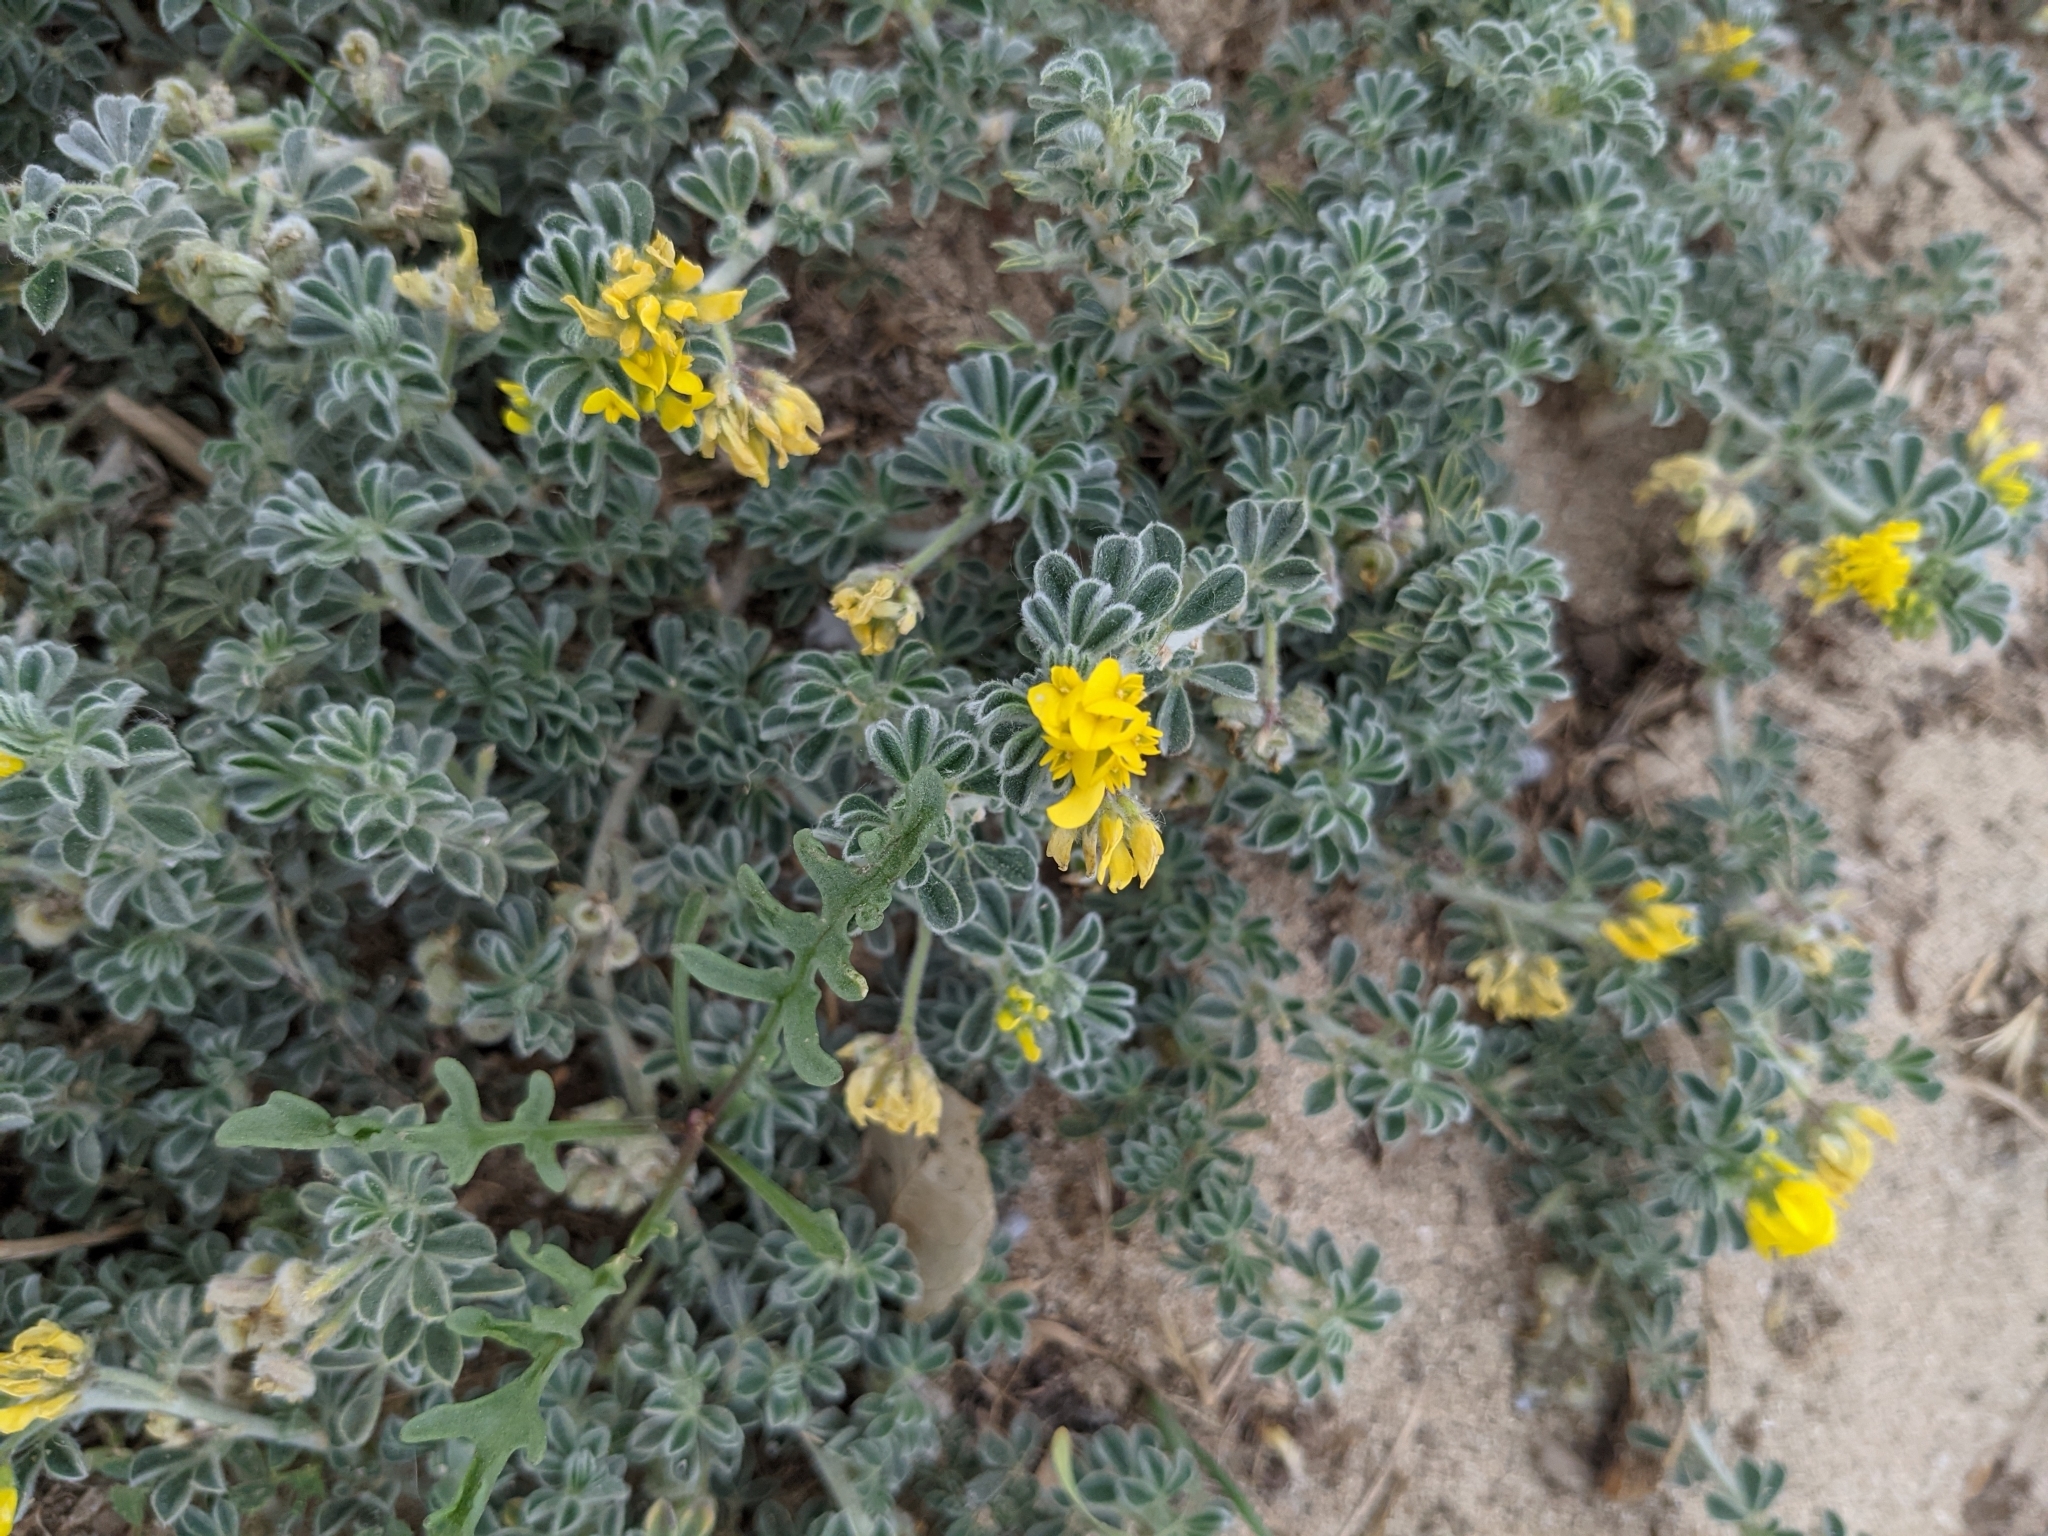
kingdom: Plantae
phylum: Tracheophyta
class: Magnoliopsida
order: Fabales
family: Fabaceae
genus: Medicago
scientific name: Medicago marina
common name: Sea medick
